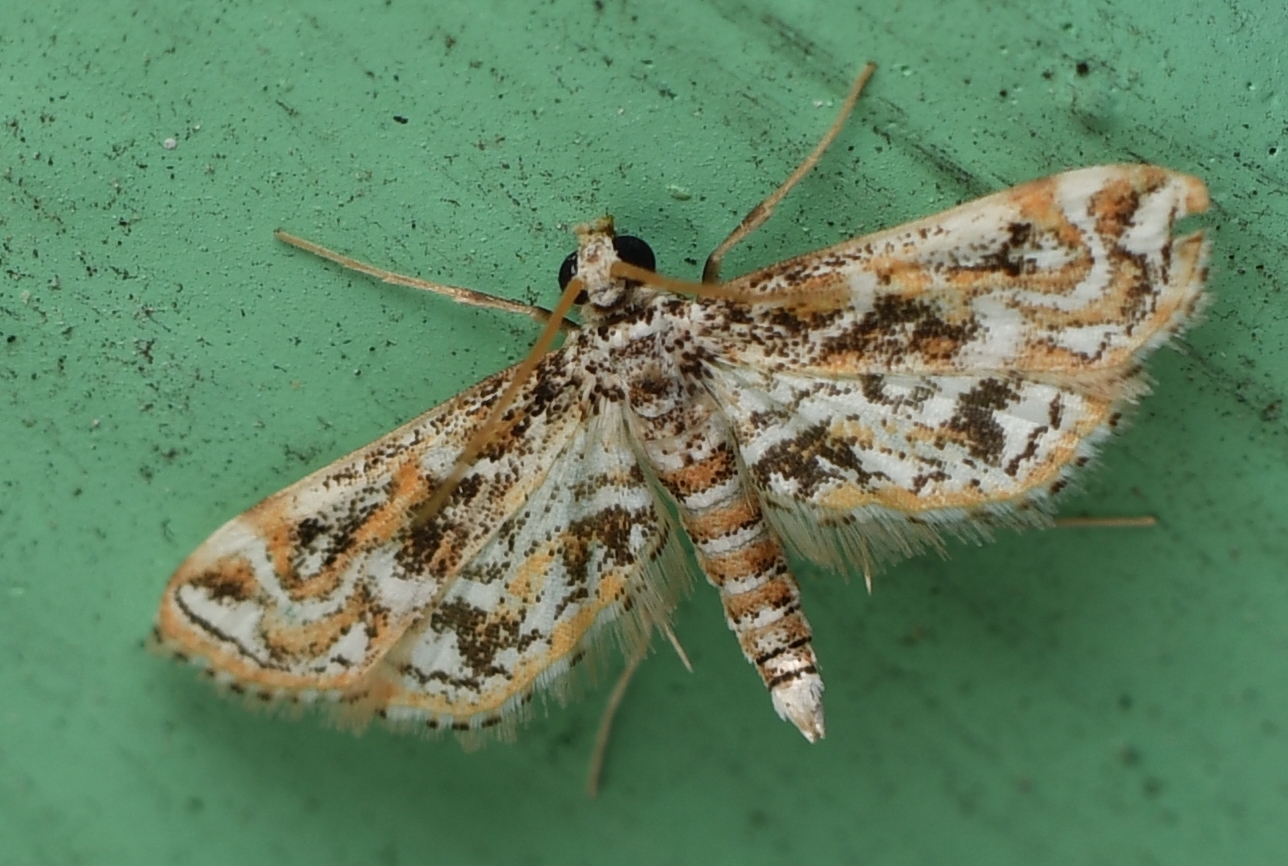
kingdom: Animalia
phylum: Arthropoda
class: Insecta
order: Lepidoptera
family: Crambidae
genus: Parapoynx
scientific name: Parapoynx diminutalis
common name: Hydrilla leafcutter
